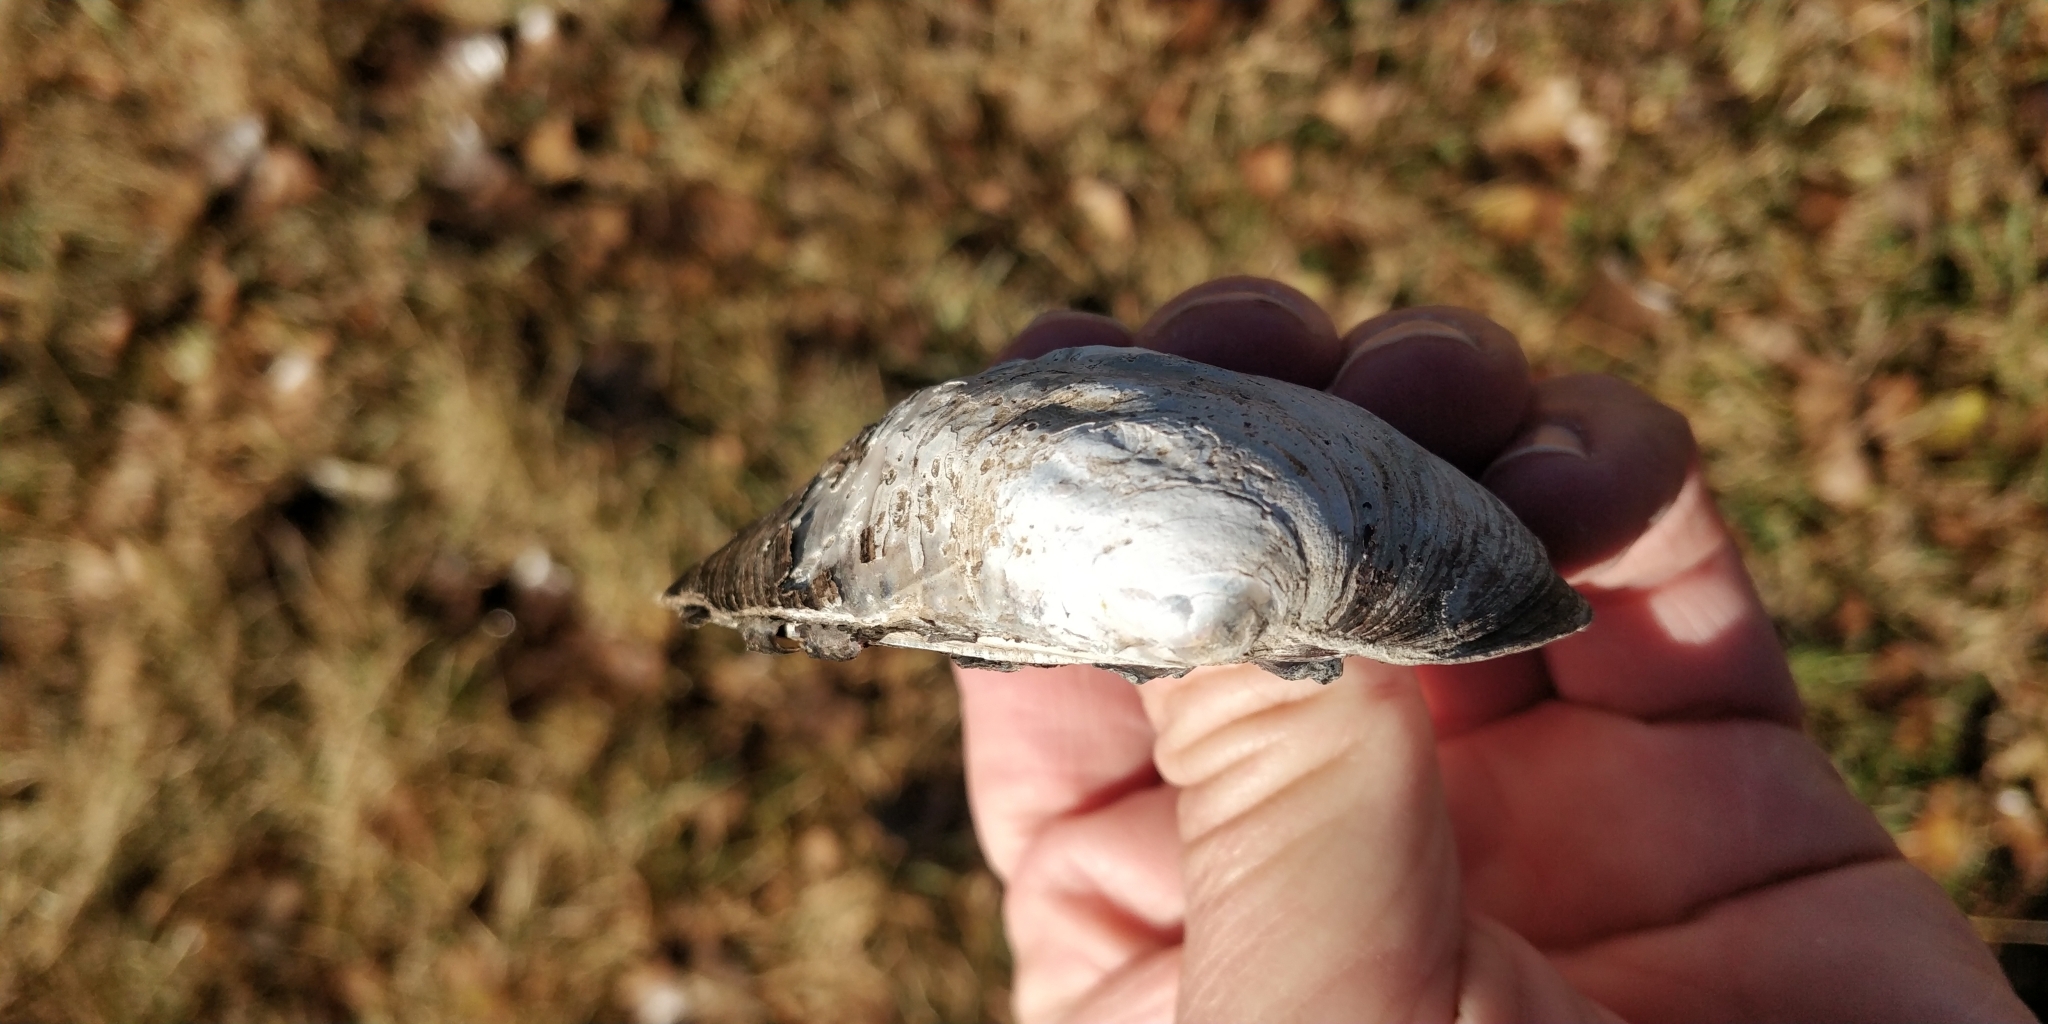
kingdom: Animalia
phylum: Mollusca
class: Bivalvia
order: Unionida
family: Unionidae
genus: Amblema
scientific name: Amblema plicata
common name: Threeridge
